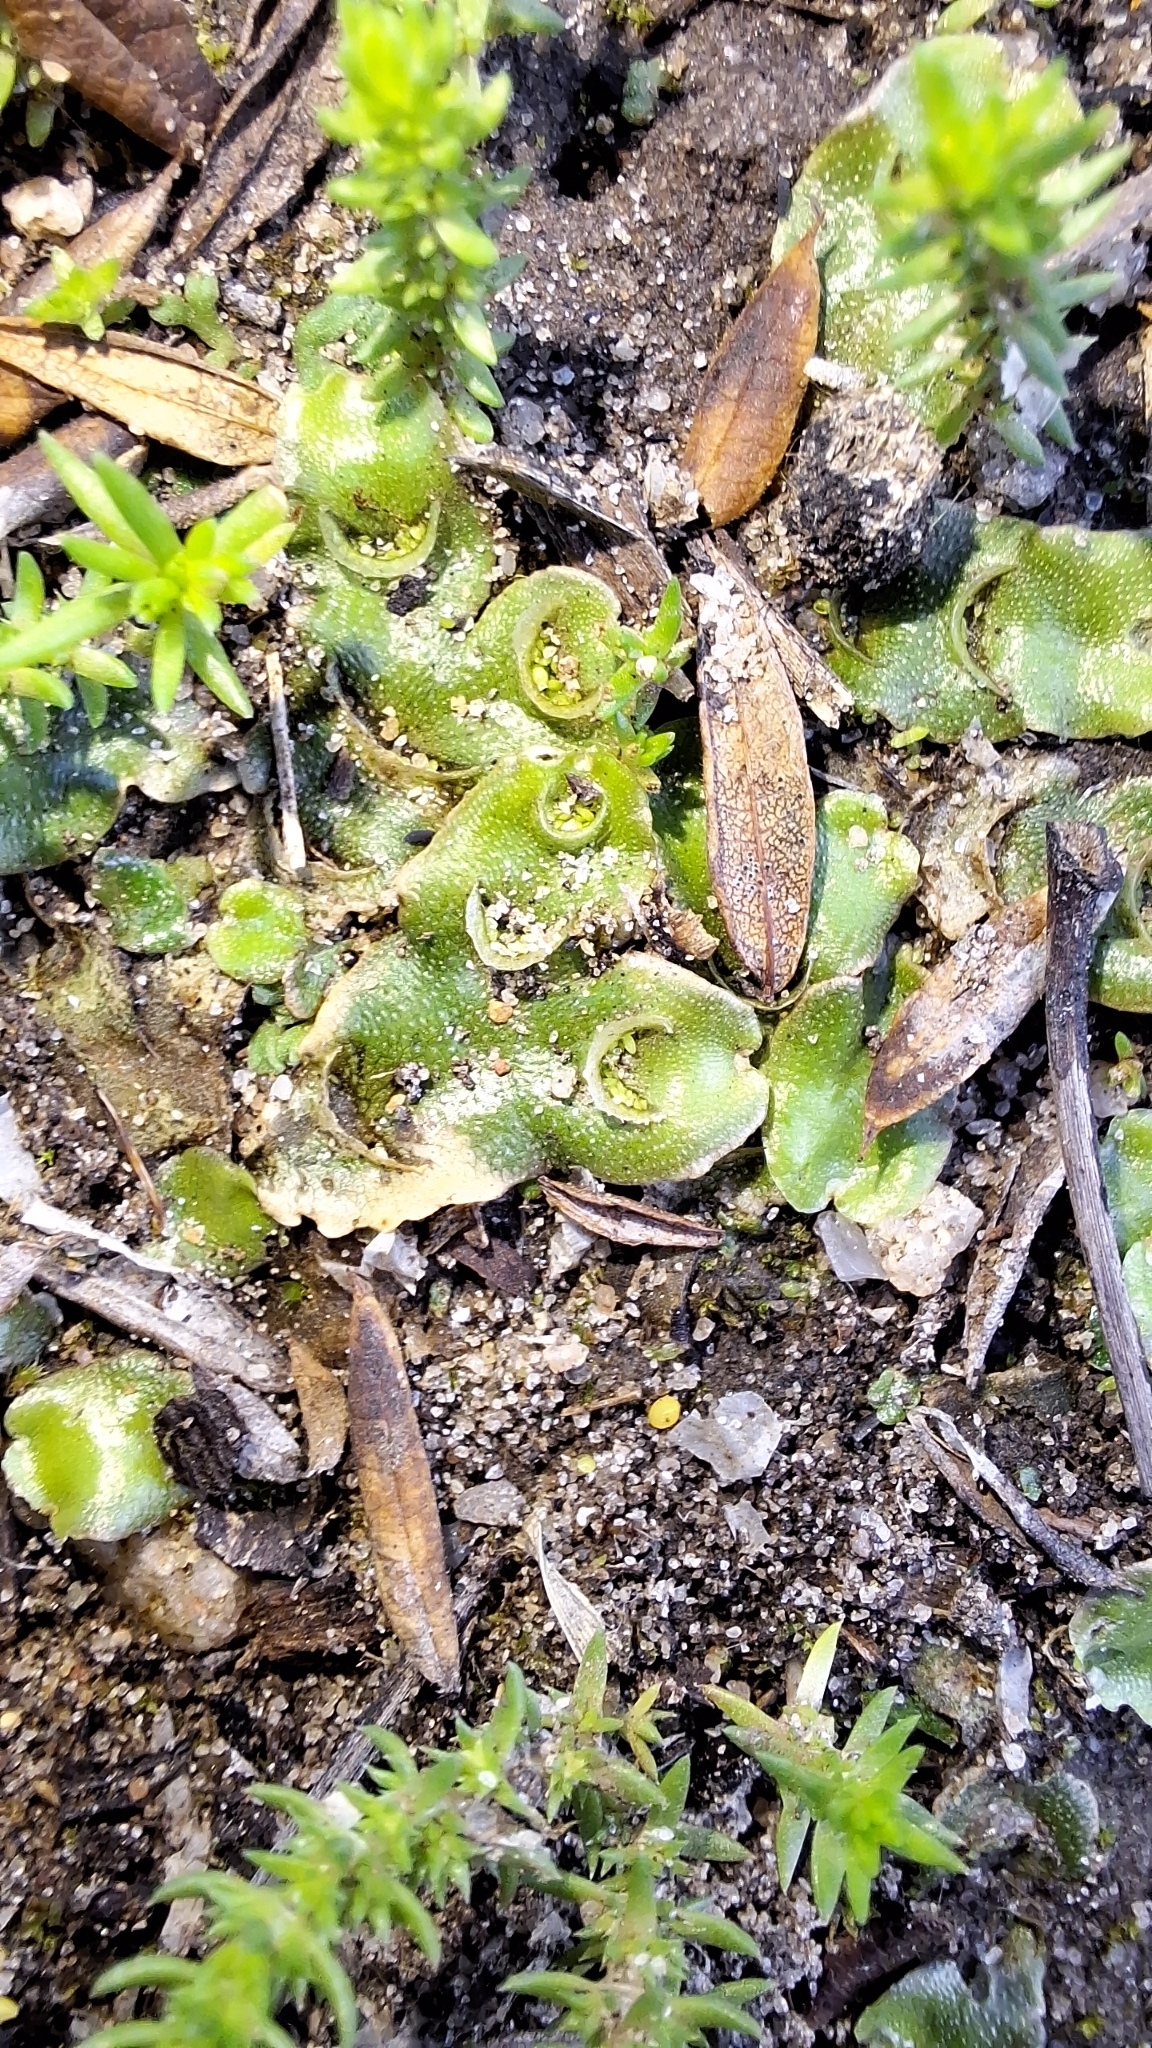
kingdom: Plantae
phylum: Marchantiophyta
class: Marchantiopsida
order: Lunulariales
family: Lunulariaceae
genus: Lunularia
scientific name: Lunularia cruciata
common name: Crescent-cup liverwort
